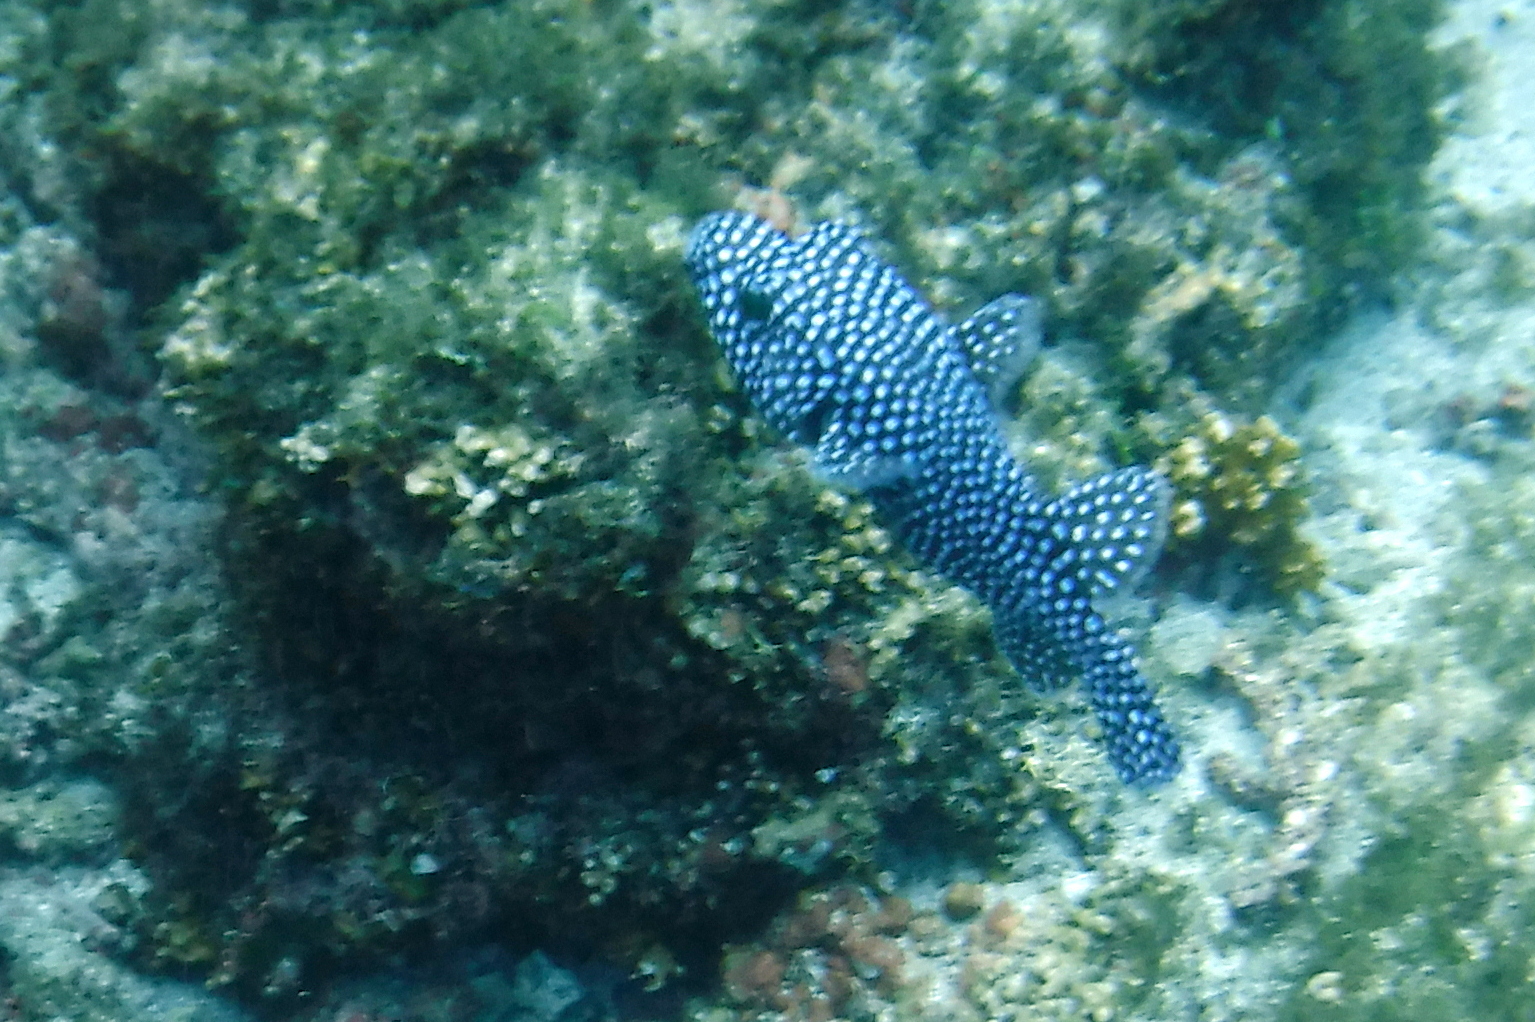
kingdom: Animalia
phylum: Chordata
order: Tetraodontiformes
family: Tetraodontidae
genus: Arothron
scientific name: Arothron meleagris
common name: Guinea-fowl pufferfish
